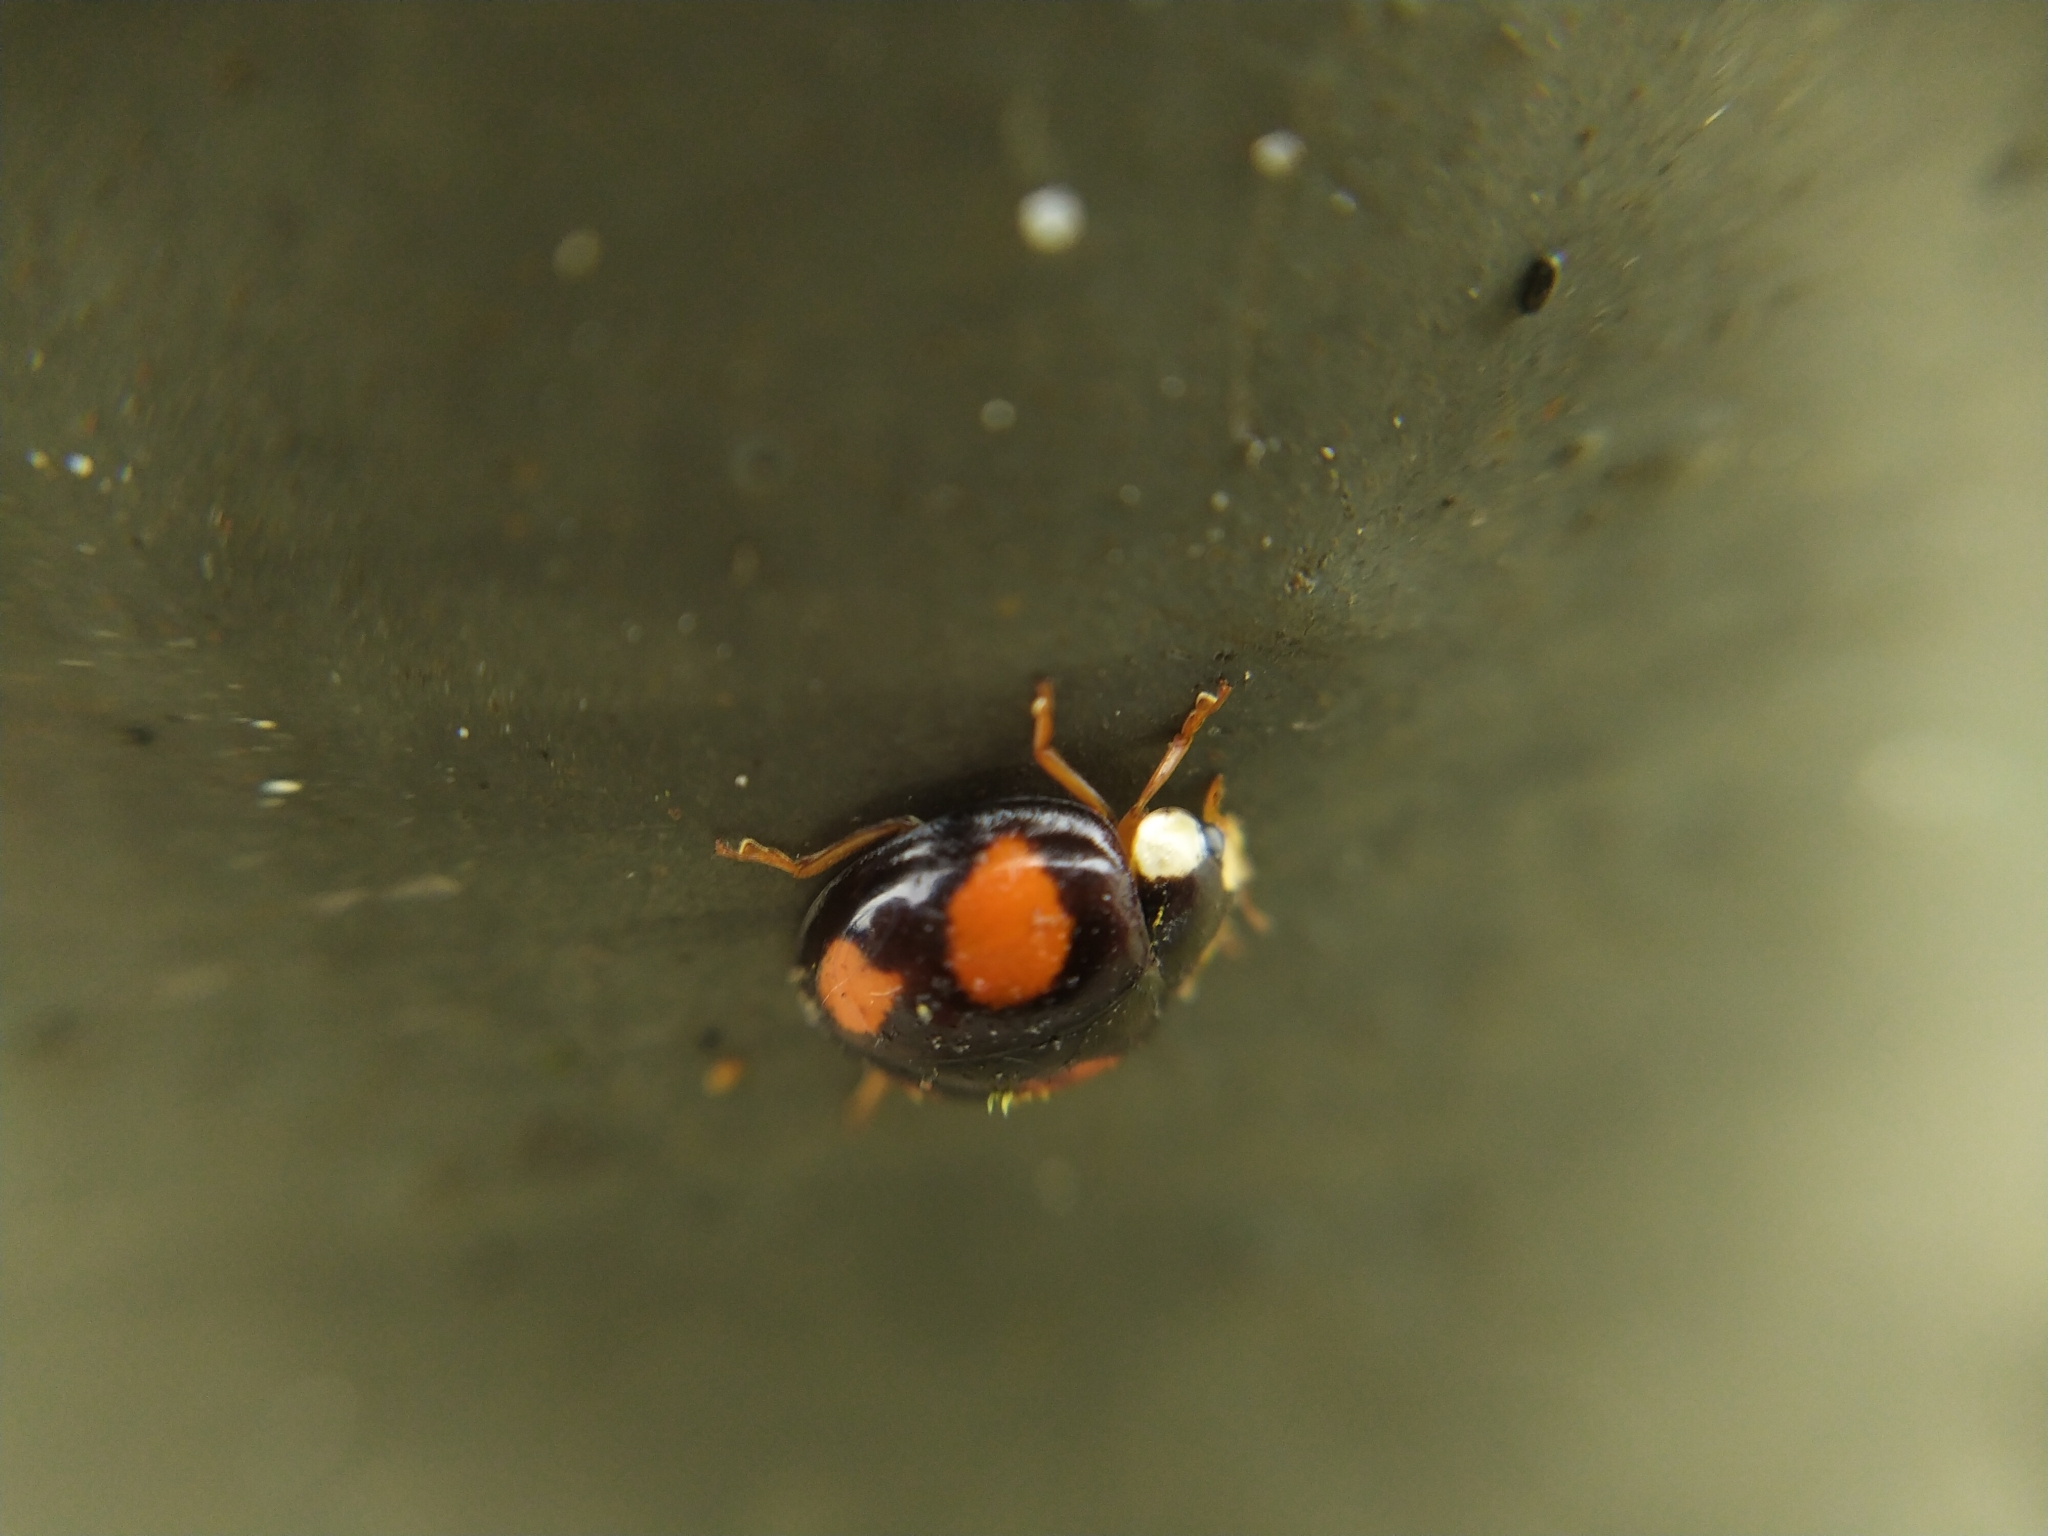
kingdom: Fungi
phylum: Ascomycota
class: Laboulbeniomycetes
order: Laboulbeniales
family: Laboulbeniaceae
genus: Hesperomyces
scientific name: Hesperomyces harmoniae
